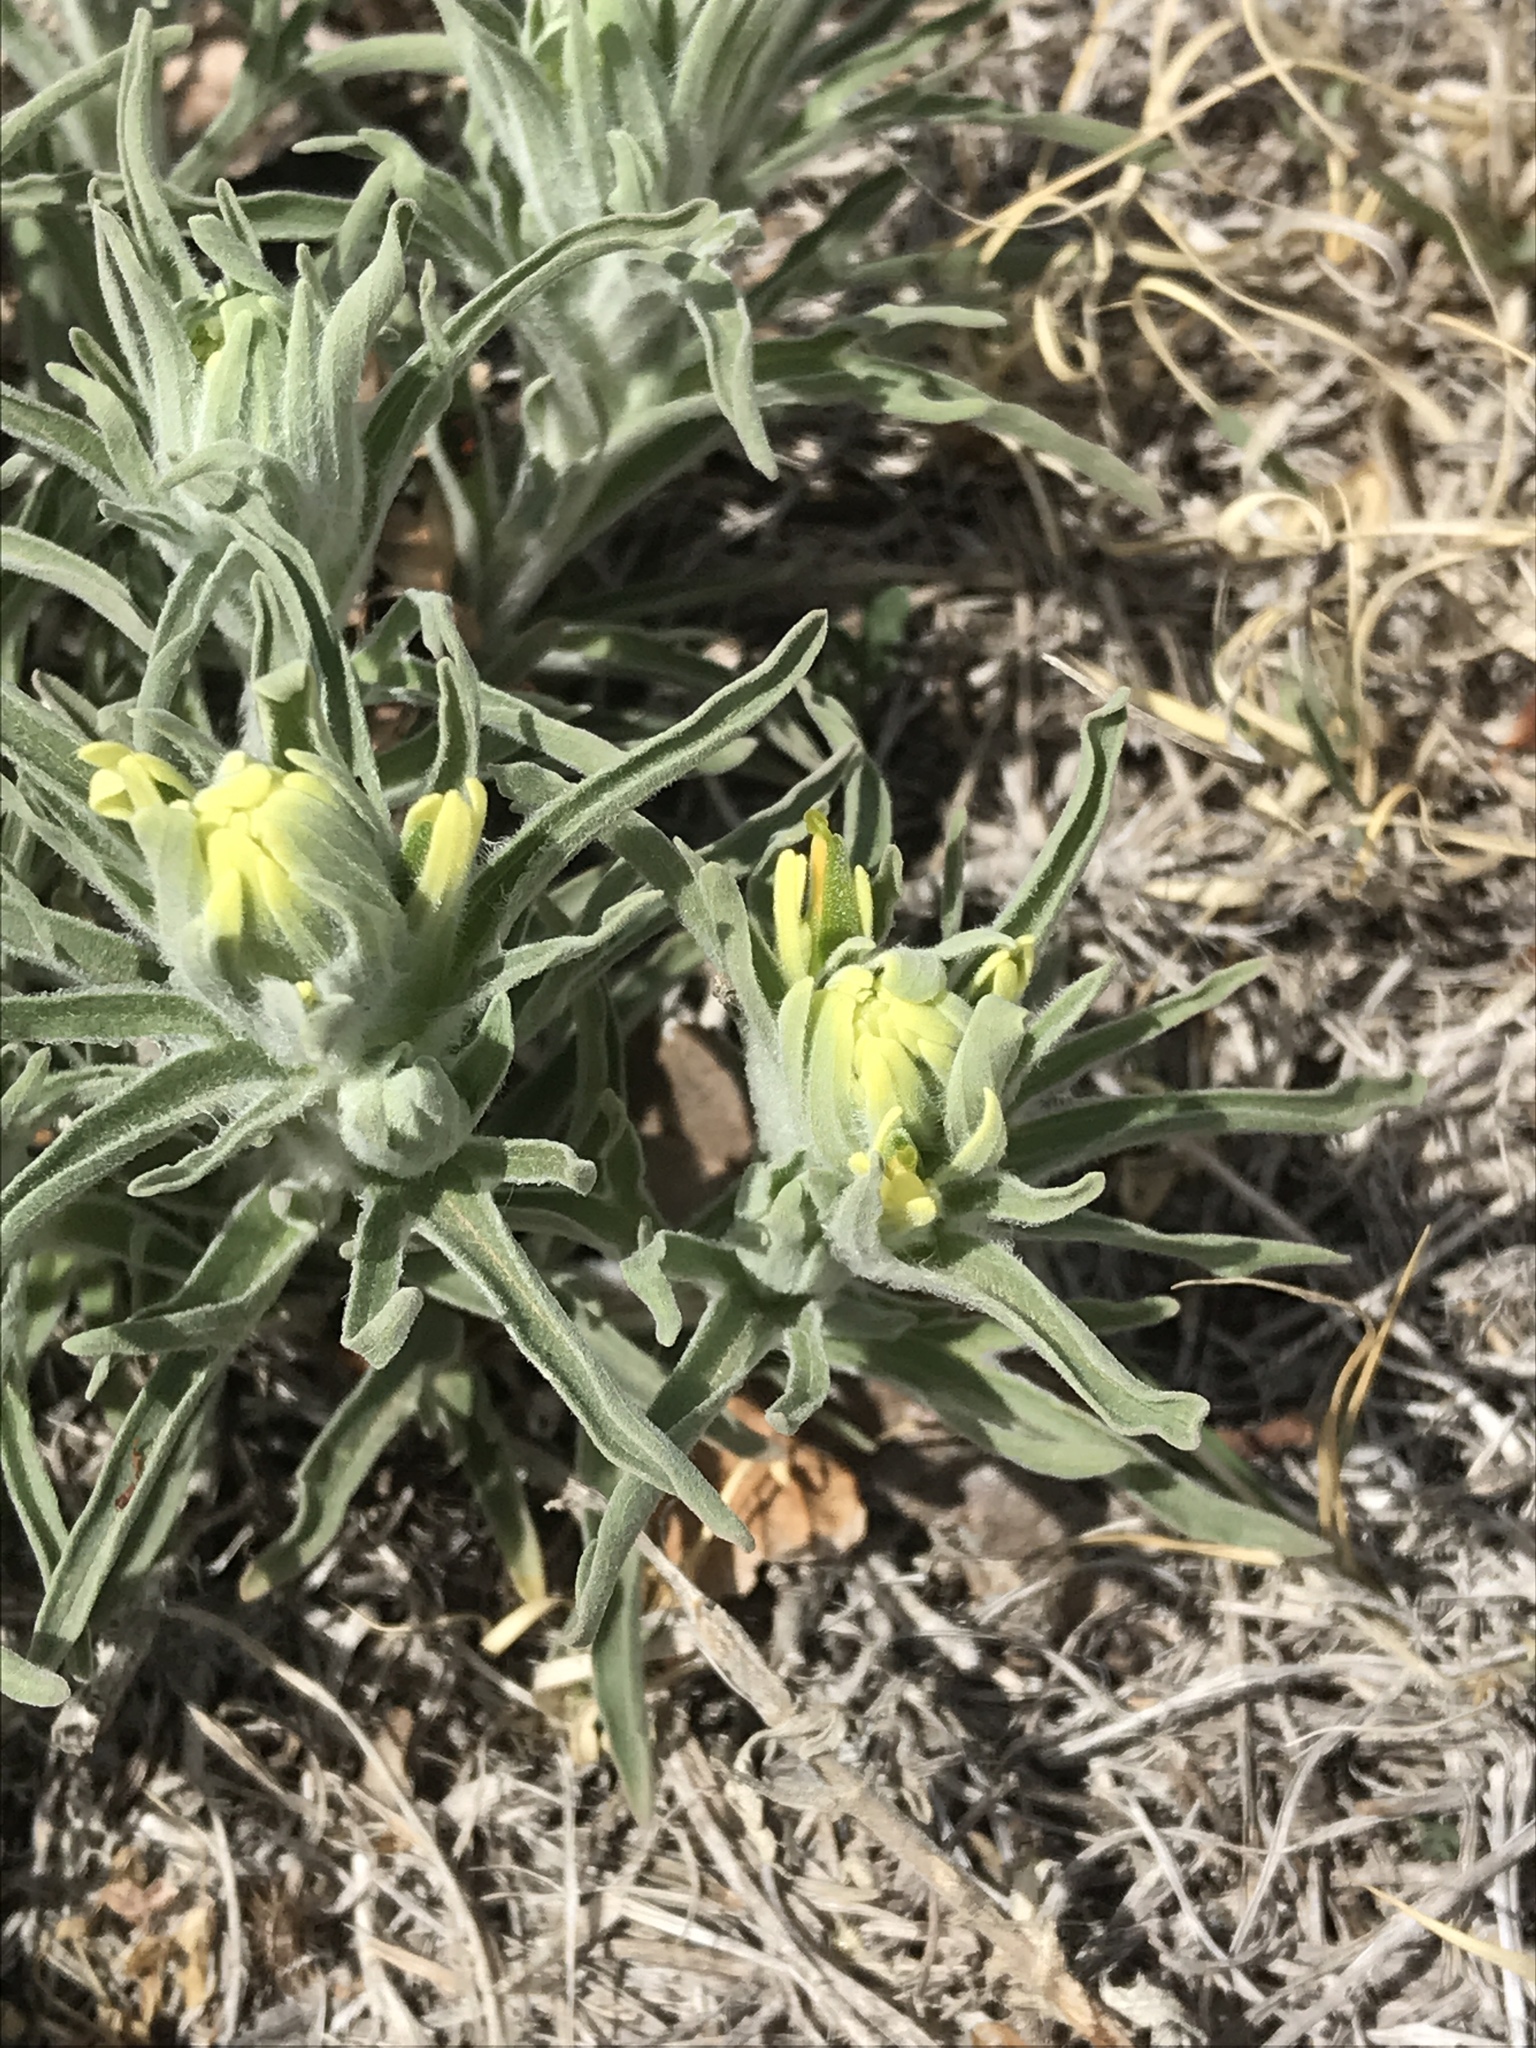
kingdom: Plantae
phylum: Tracheophyta
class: Magnoliopsida
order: Lamiales
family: Orobanchaceae
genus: Castilleja
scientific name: Castilleja citrina
